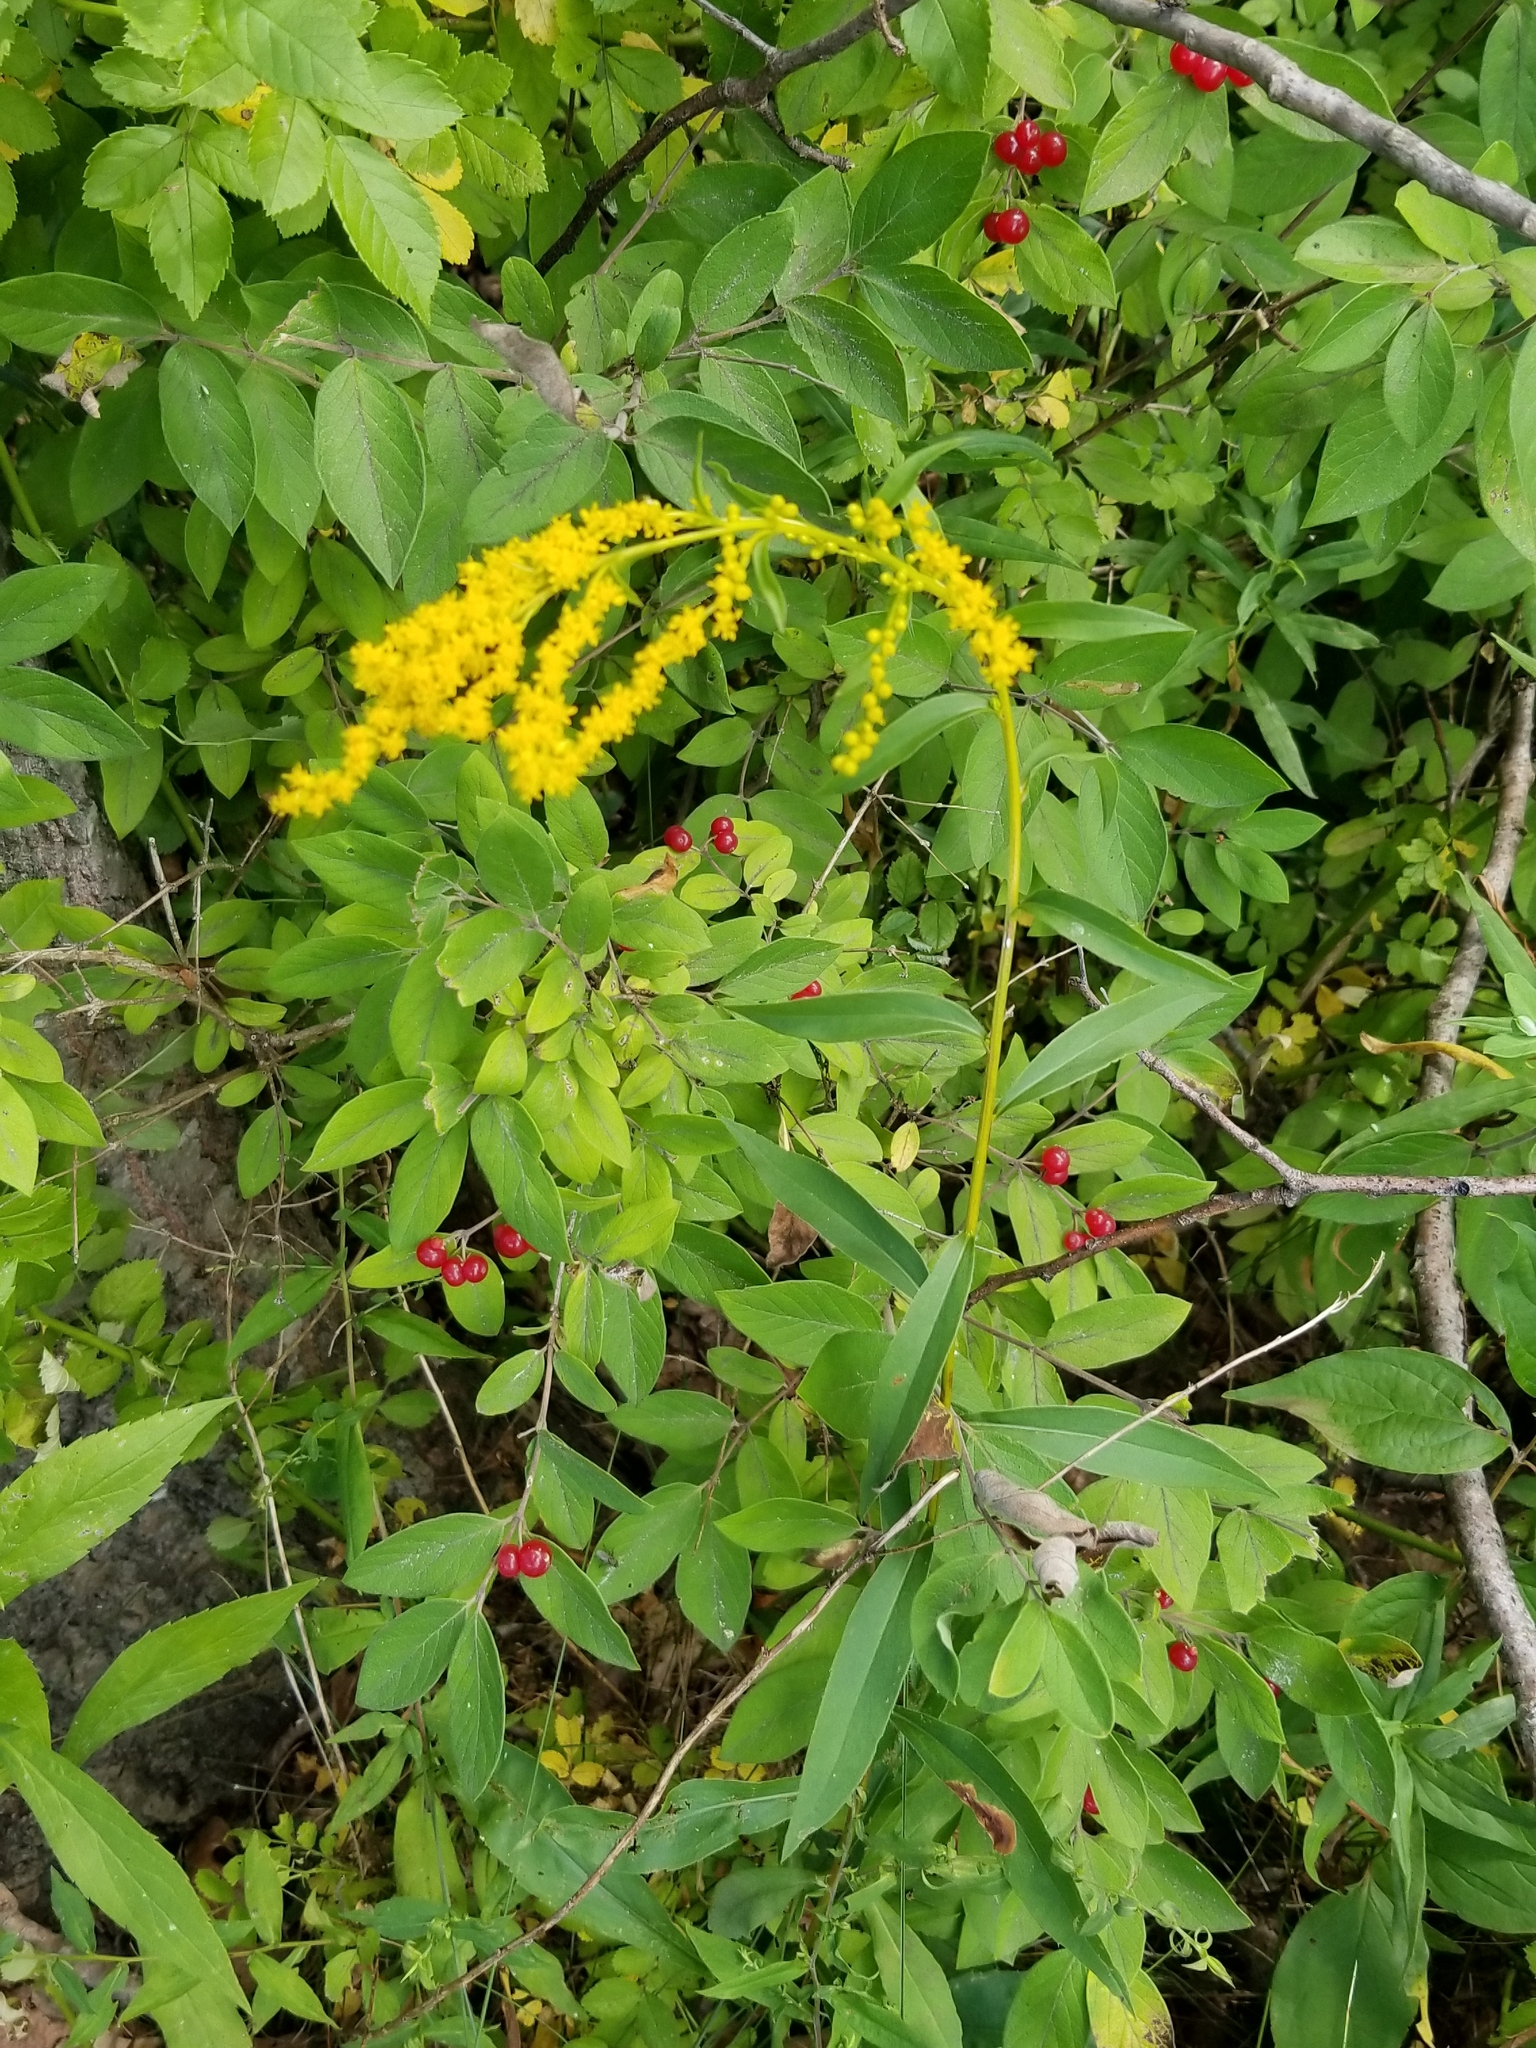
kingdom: Plantae
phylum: Tracheophyta
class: Magnoliopsida
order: Asterales
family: Asteraceae
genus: Solidago
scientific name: Solidago juncea
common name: Early goldenrod
